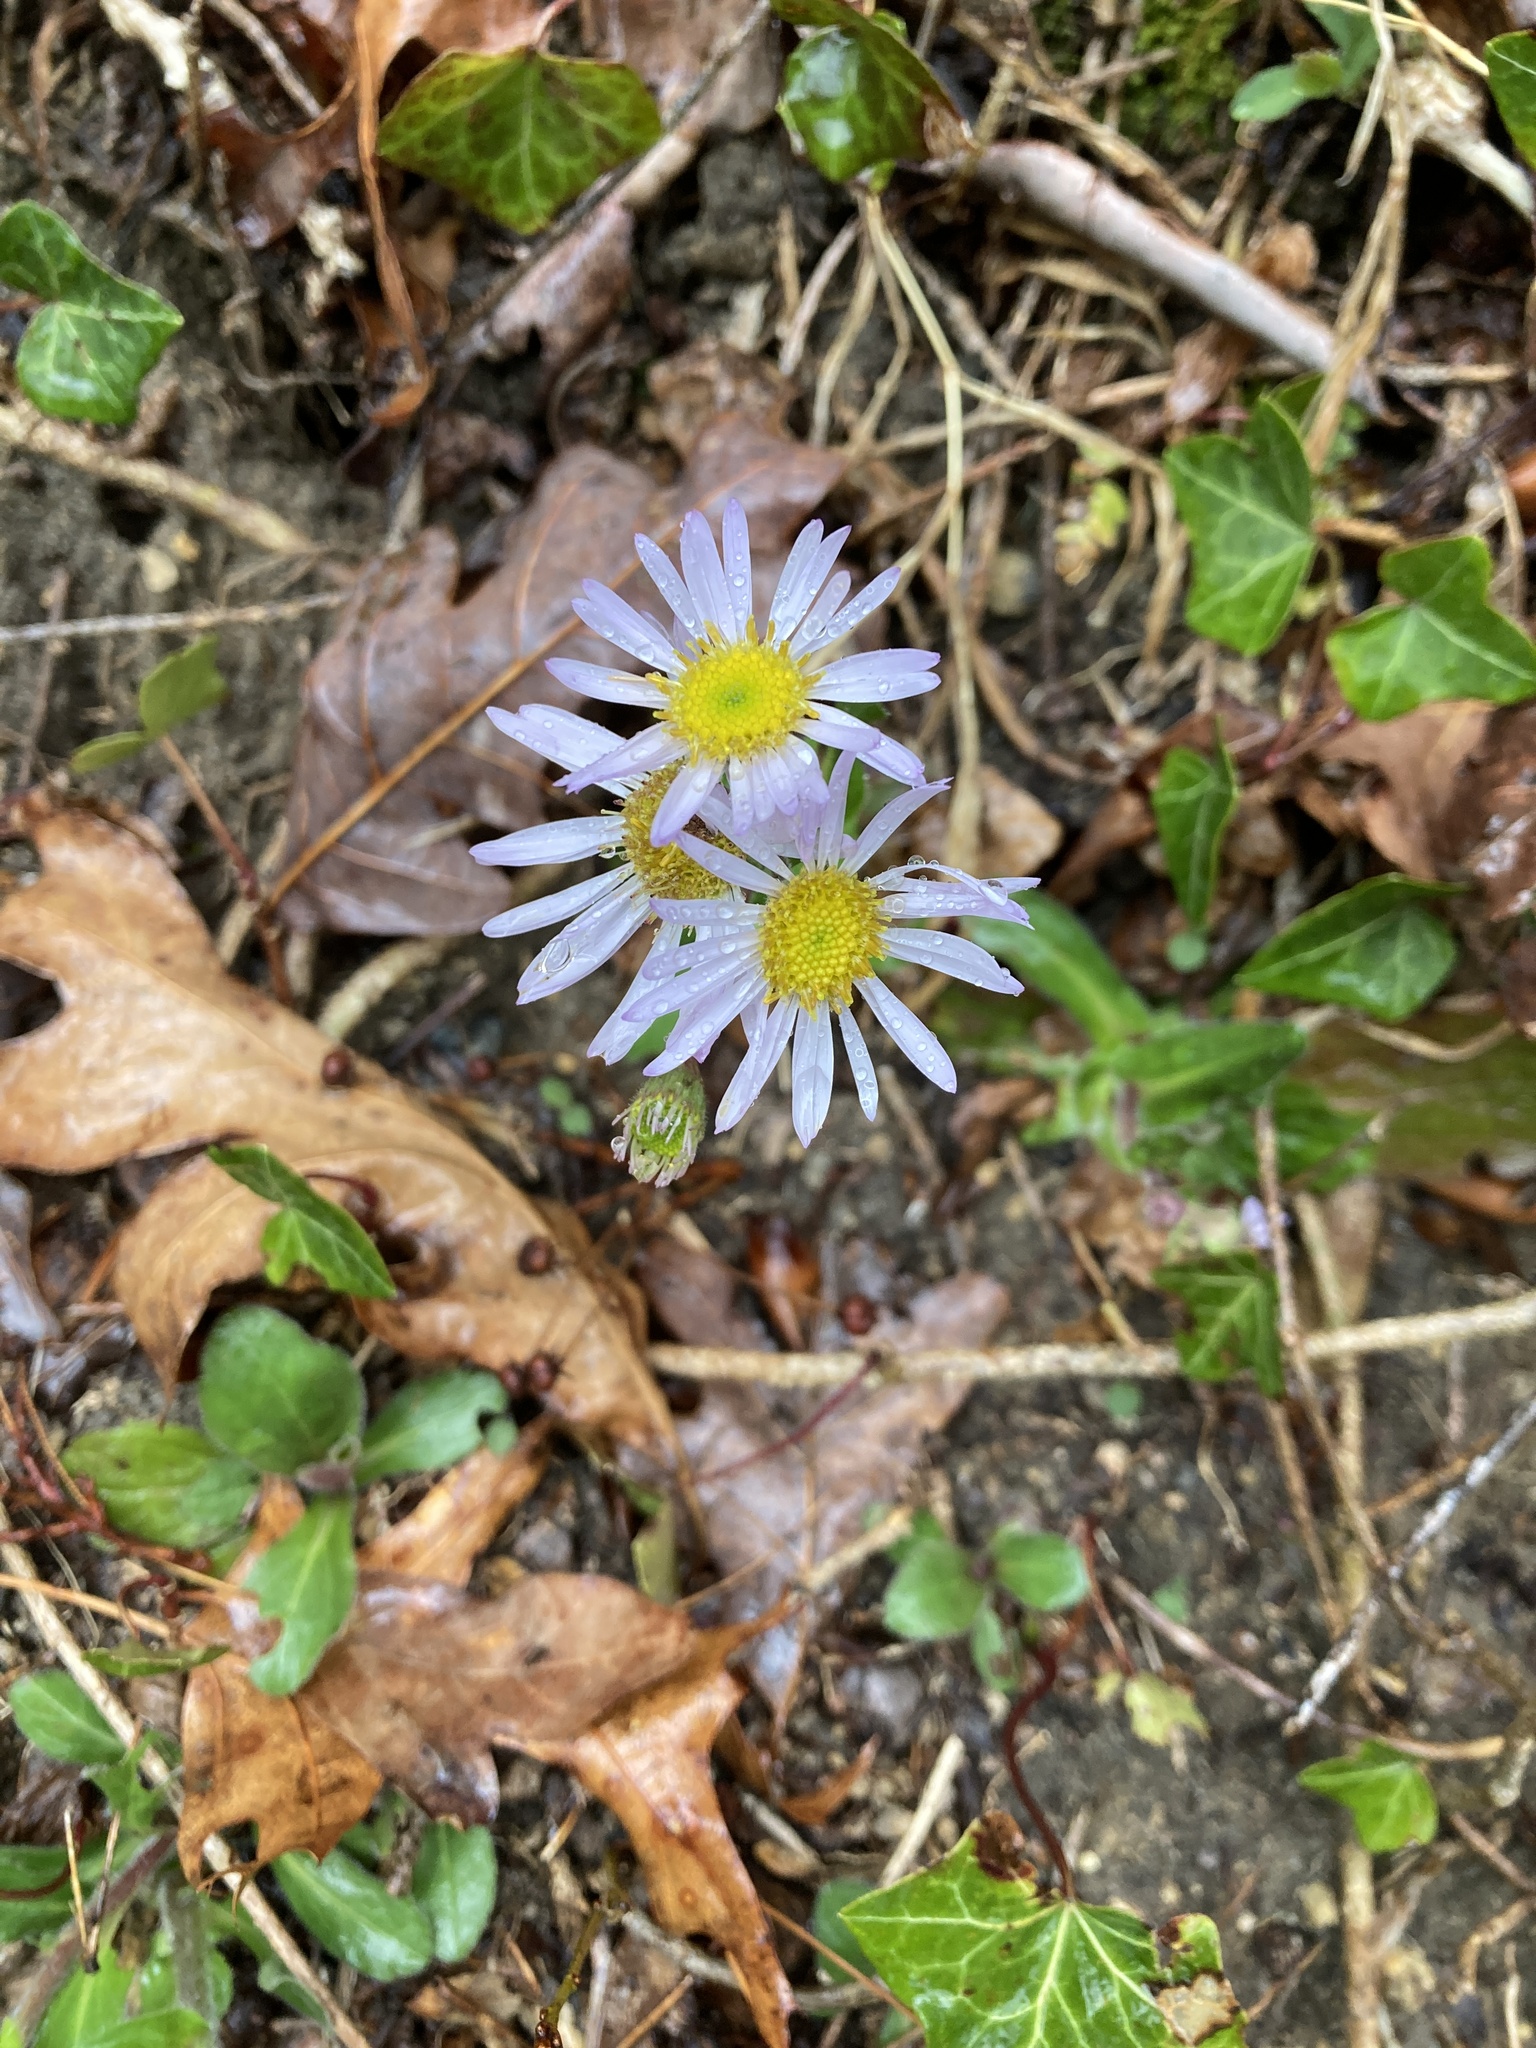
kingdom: Plantae
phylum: Tracheophyta
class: Magnoliopsida
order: Asterales
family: Asteraceae
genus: Erigeron
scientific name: Erigeron pulchellus
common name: Hairy fleabane
